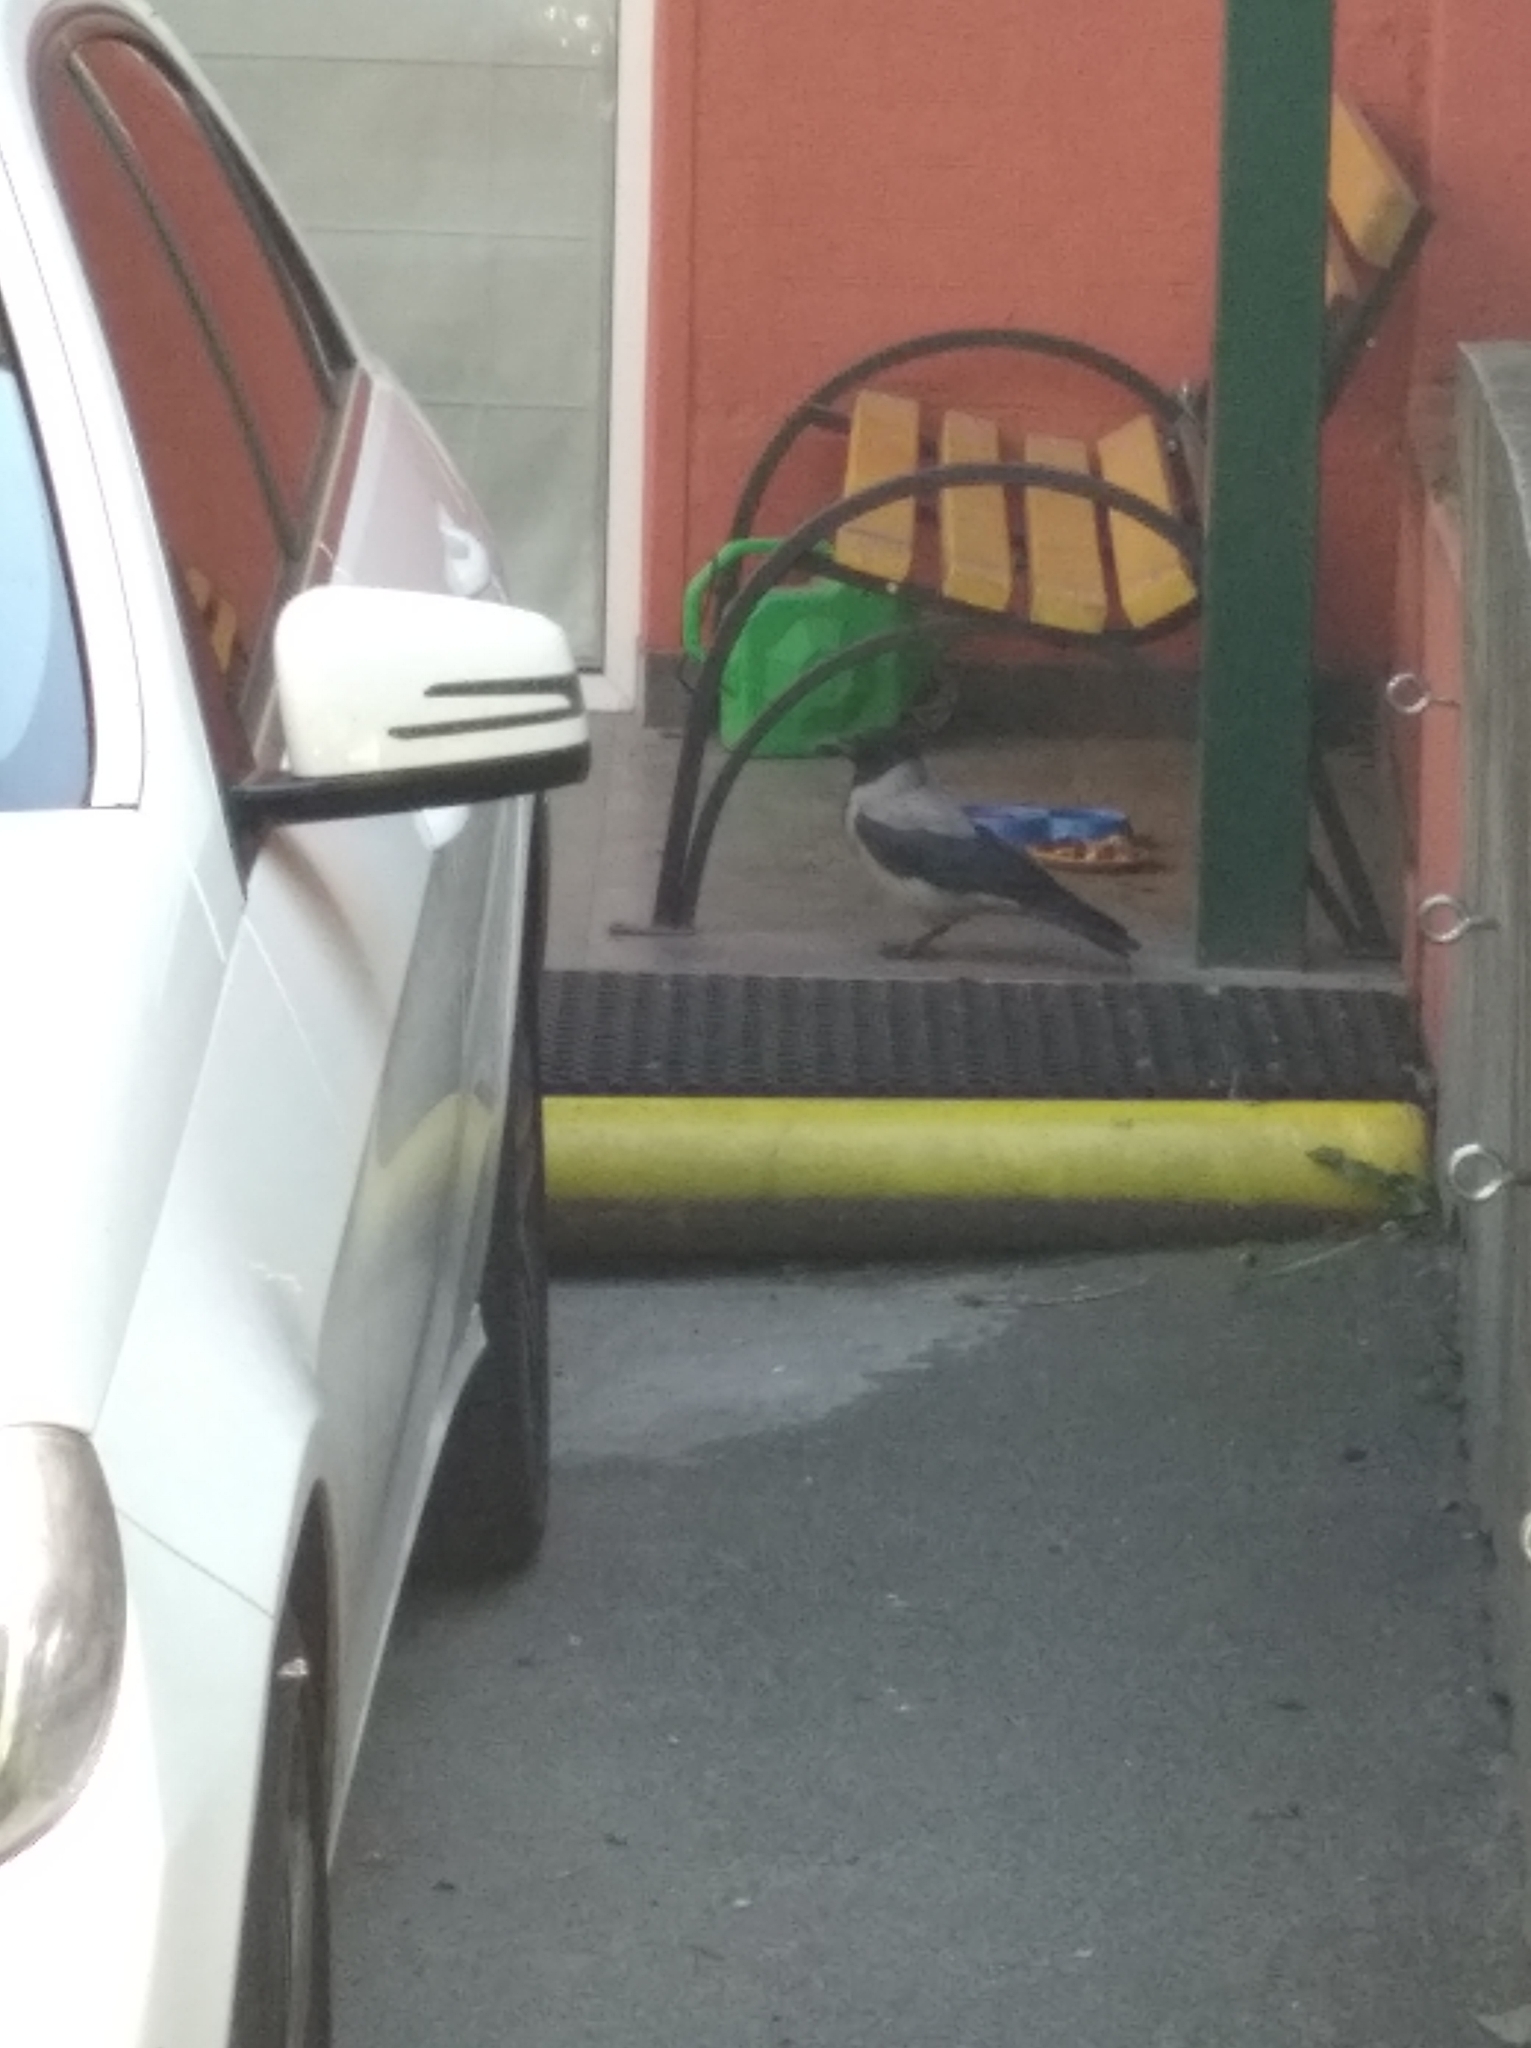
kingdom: Animalia
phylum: Chordata
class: Aves
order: Passeriformes
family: Corvidae
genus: Corvus
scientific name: Corvus cornix
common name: Hooded crow
